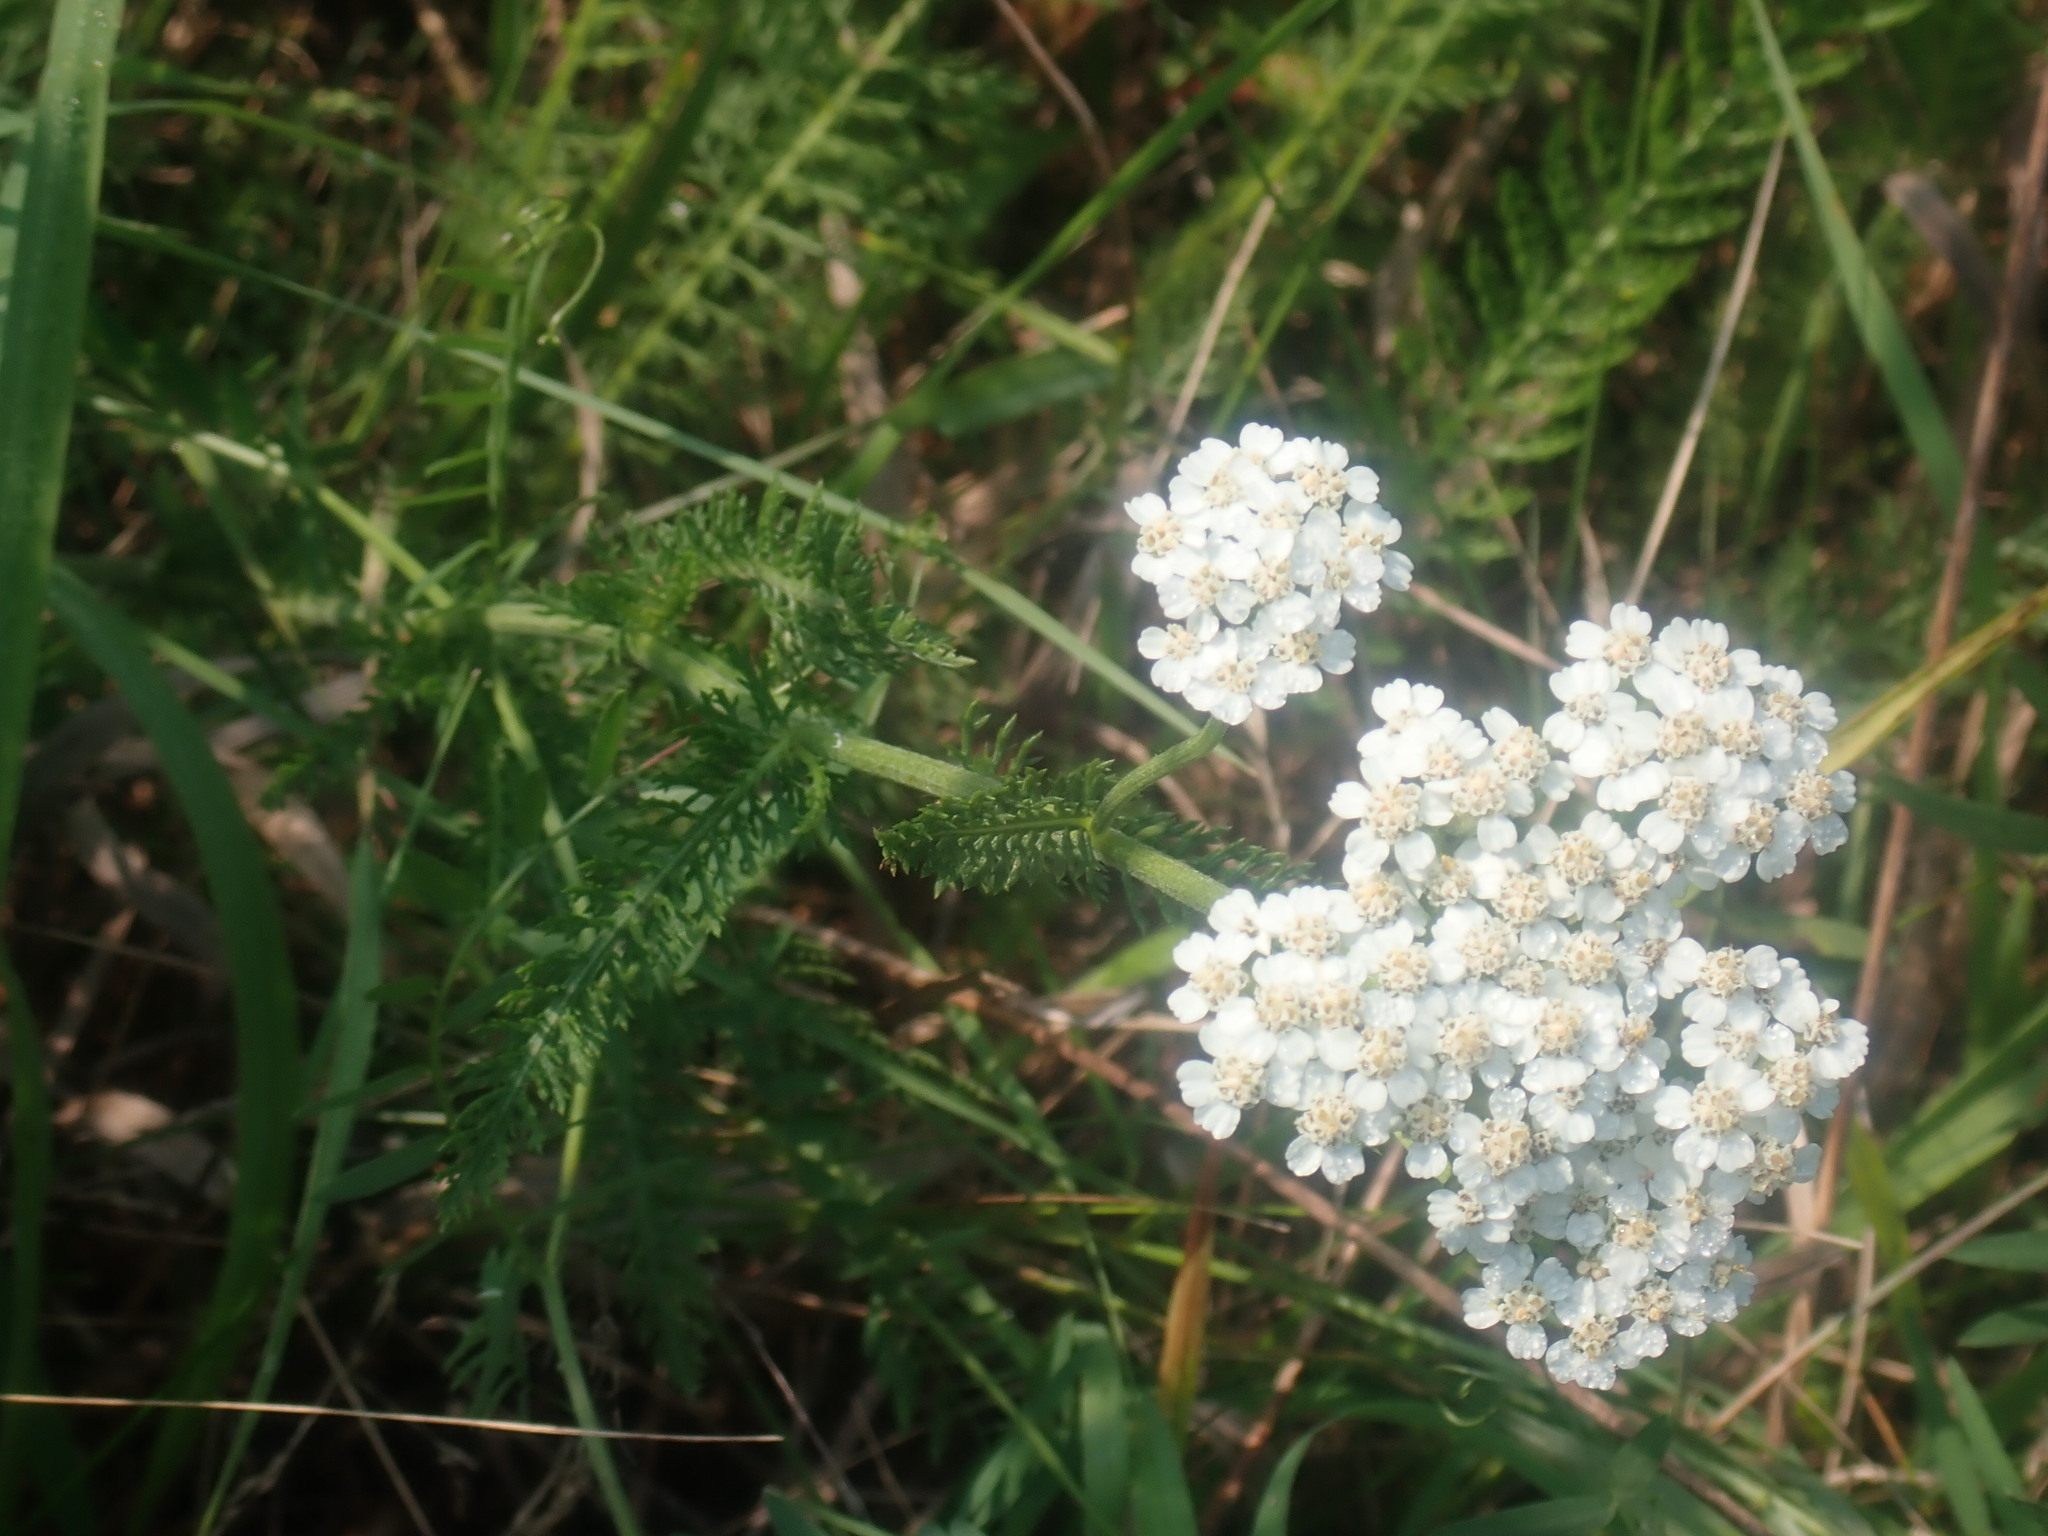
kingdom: Plantae
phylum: Tracheophyta
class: Magnoliopsida
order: Asterales
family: Asteraceae
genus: Achillea
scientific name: Achillea millefolium
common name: Yarrow
